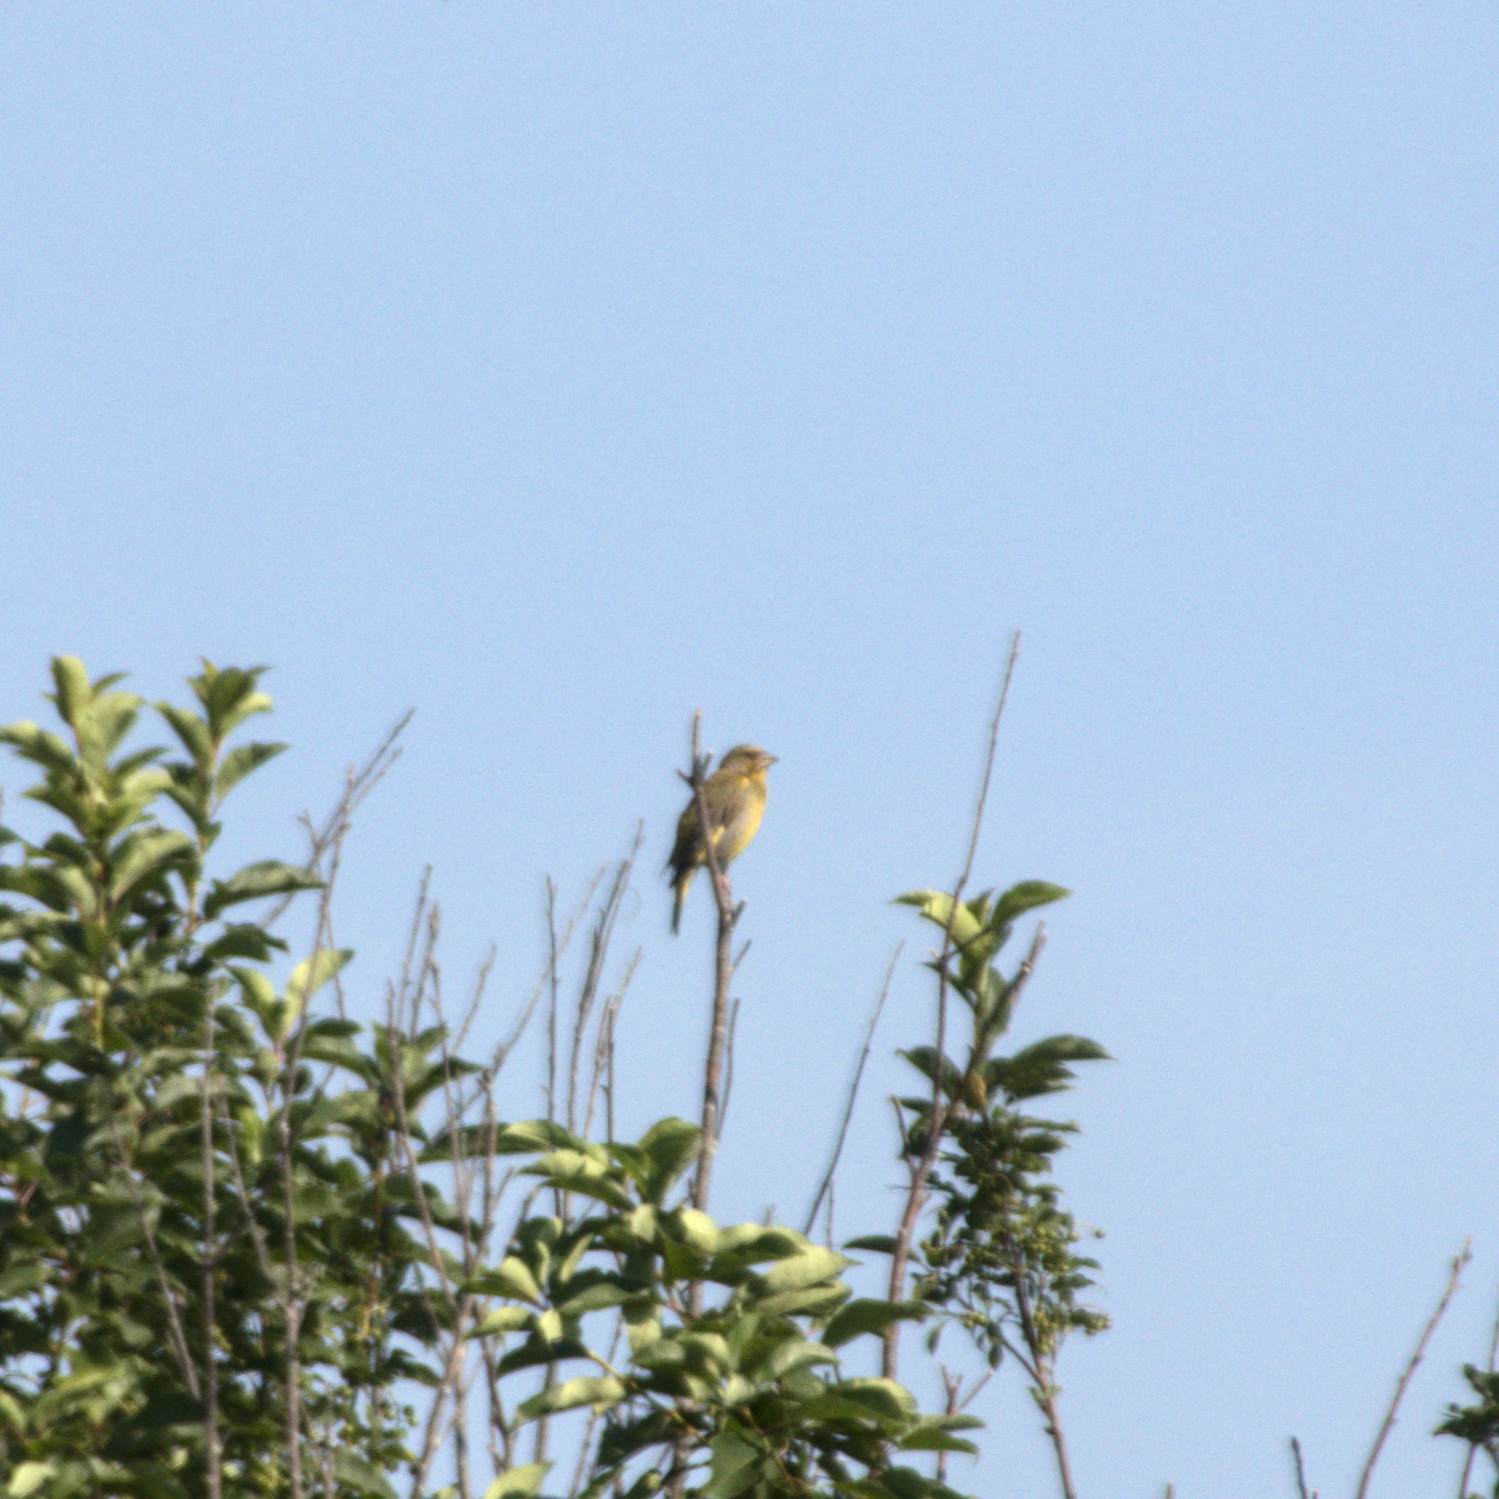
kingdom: Plantae
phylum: Tracheophyta
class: Liliopsida
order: Poales
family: Poaceae
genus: Chloris
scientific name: Chloris chloris
